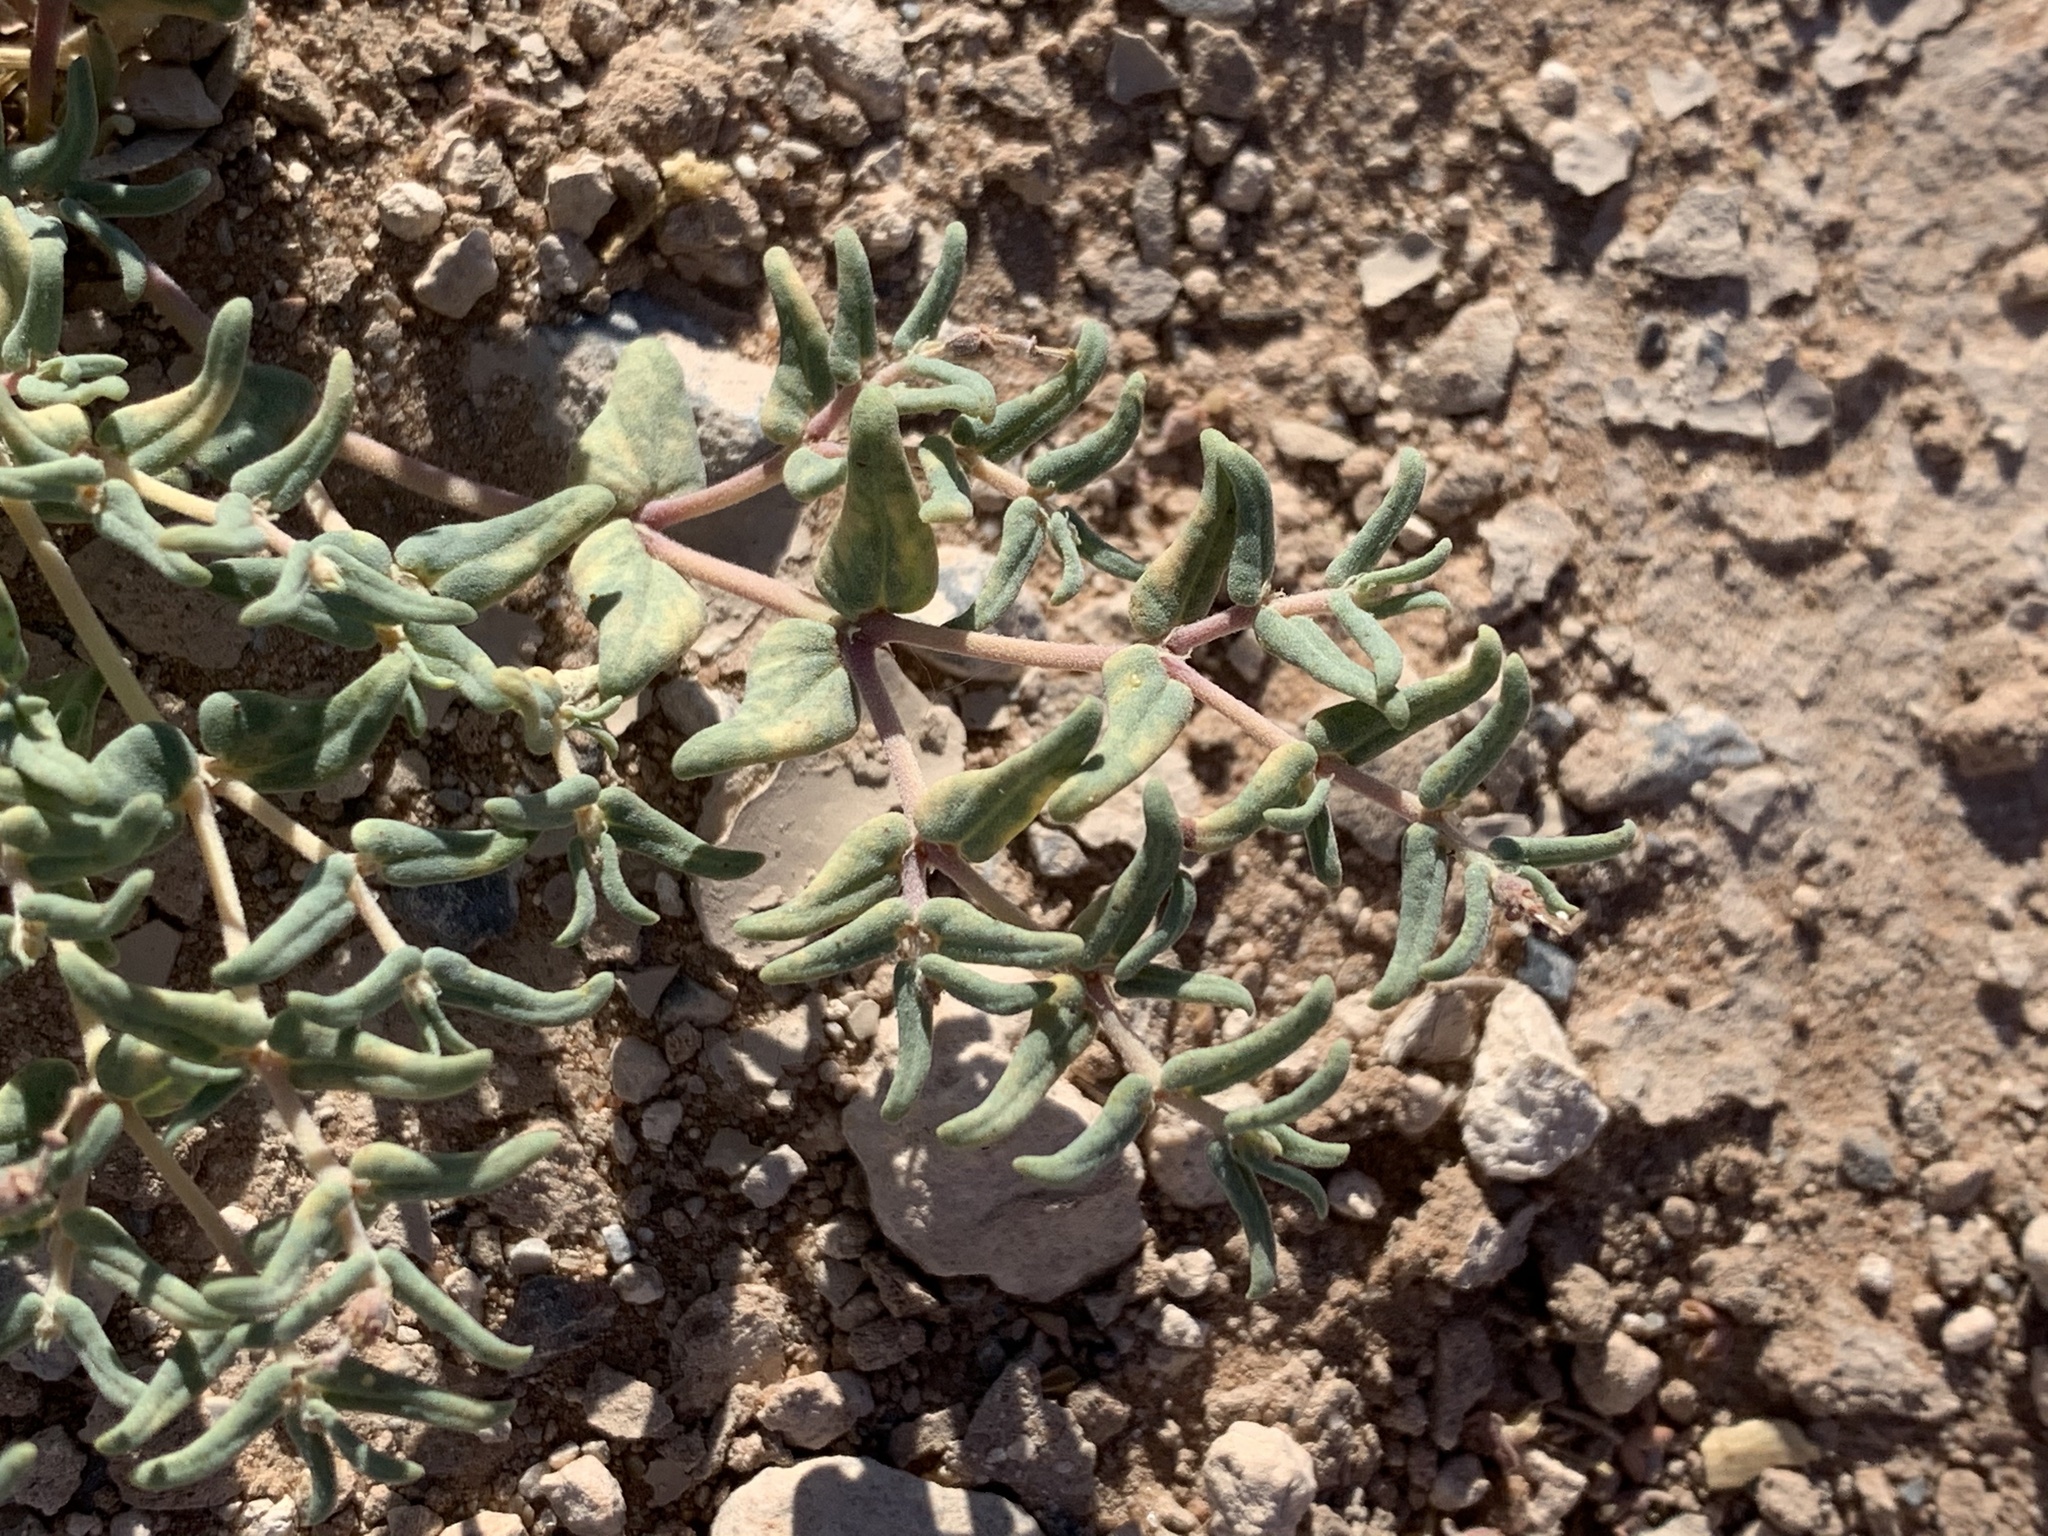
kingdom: Plantae
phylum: Tracheophyta
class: Magnoliopsida
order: Malpighiales
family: Euphorbiaceae
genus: Euphorbia
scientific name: Euphorbia lata
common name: Hoary euphorbia
